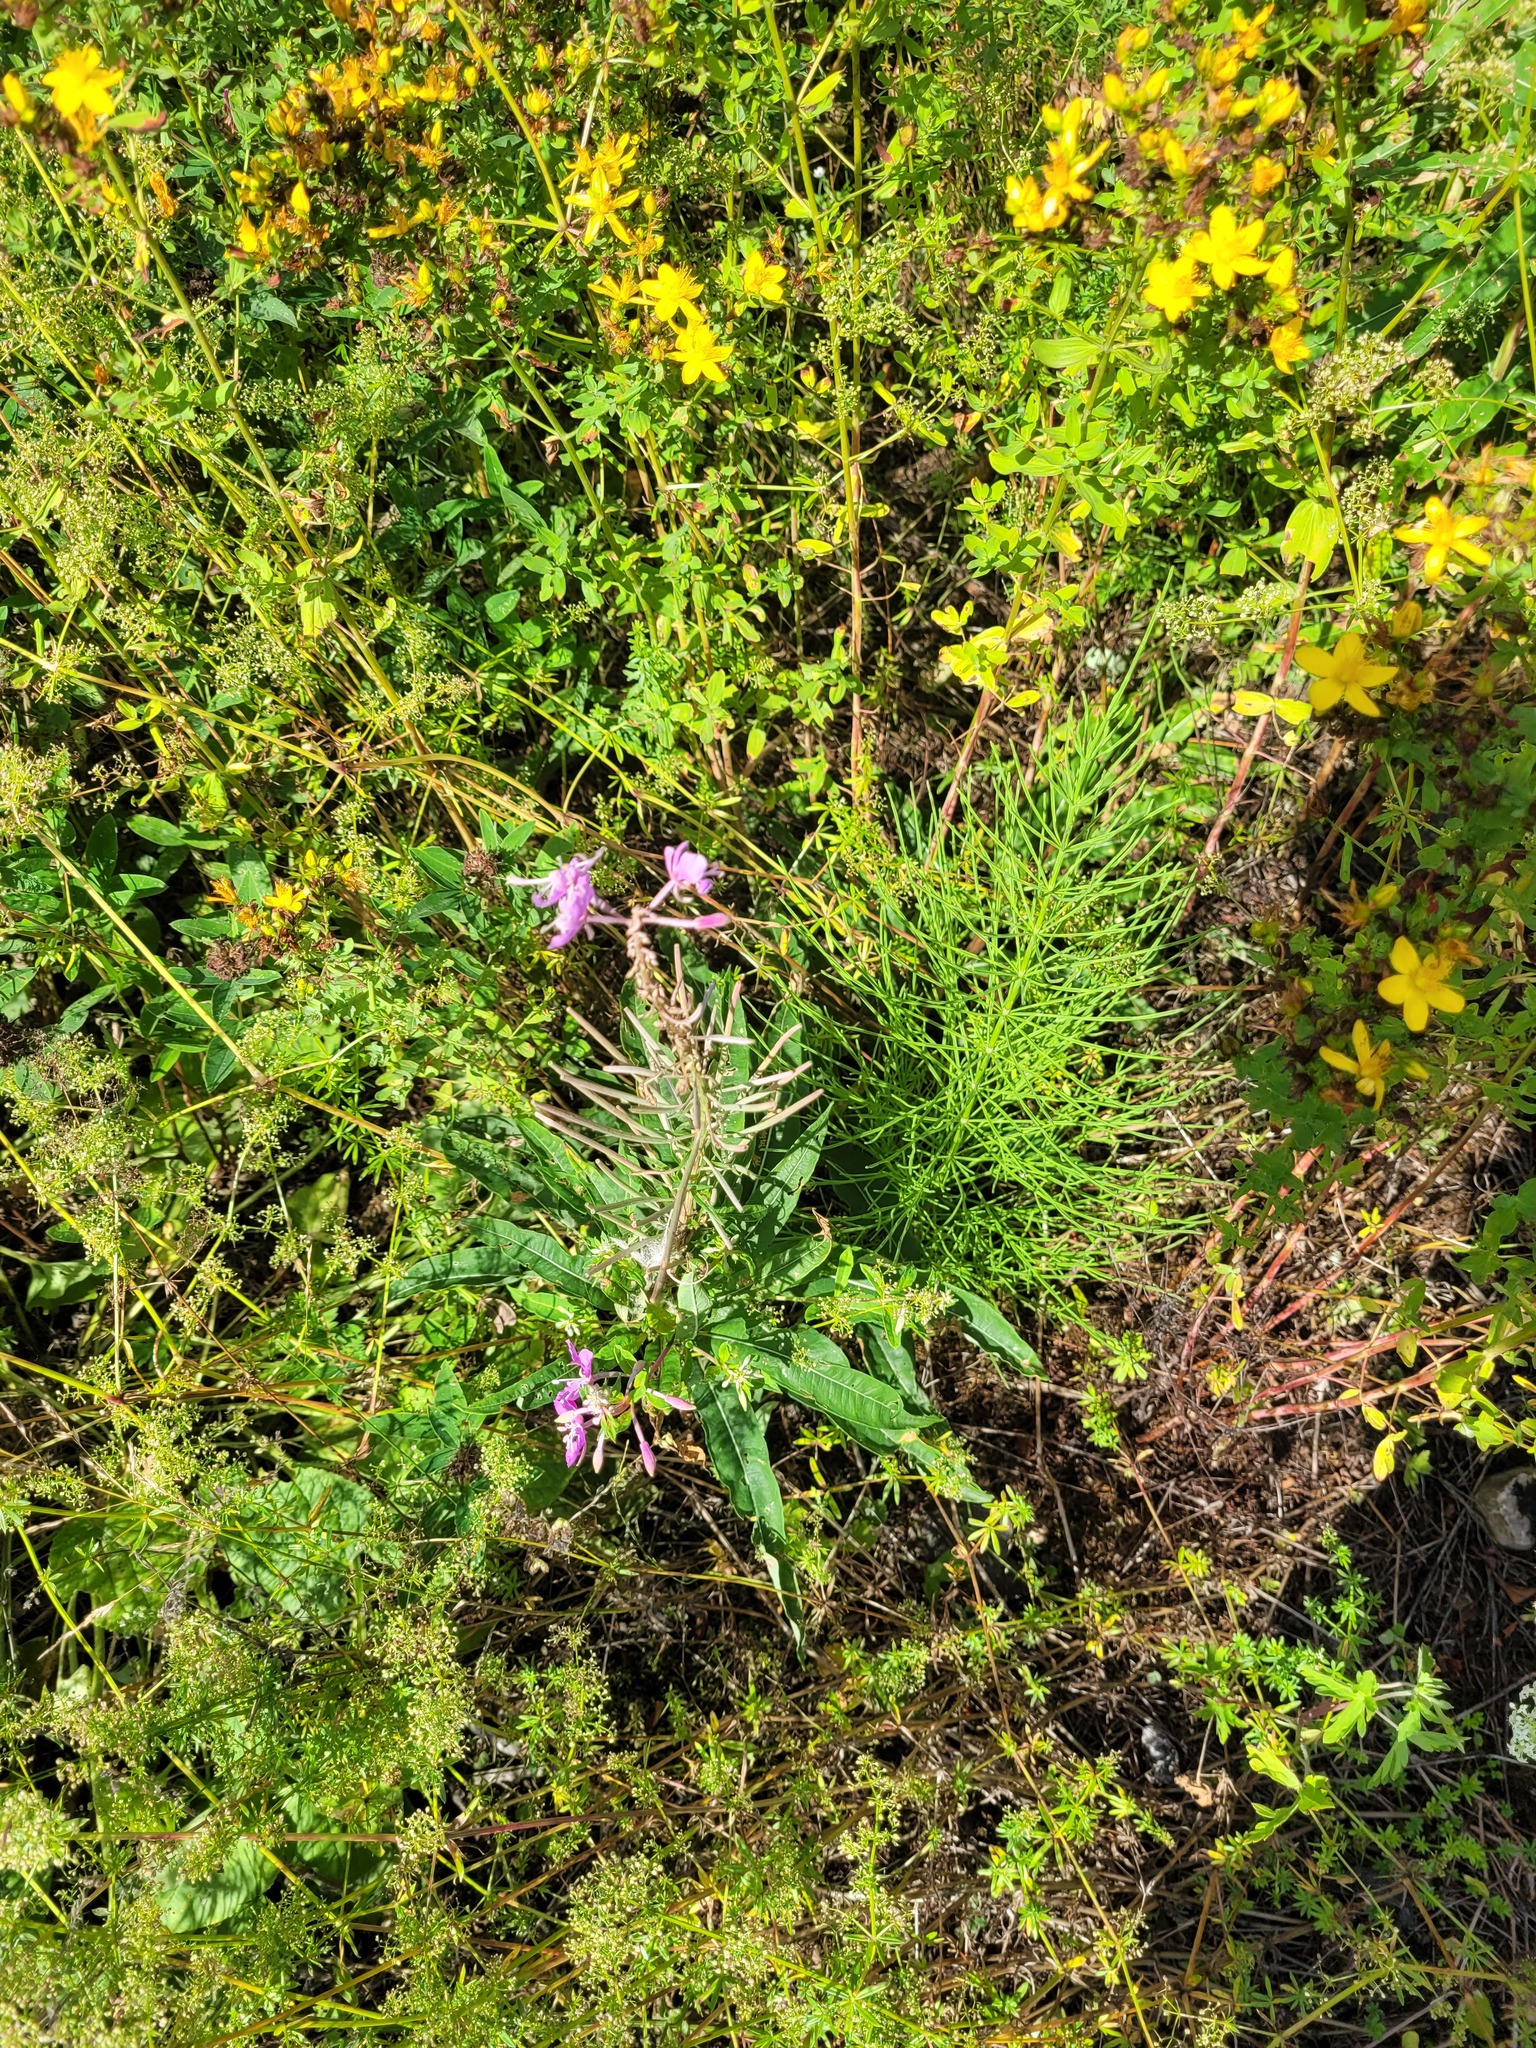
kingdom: Plantae
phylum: Tracheophyta
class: Magnoliopsida
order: Myrtales
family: Onagraceae
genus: Chamaenerion
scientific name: Chamaenerion angustifolium
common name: Fireweed
